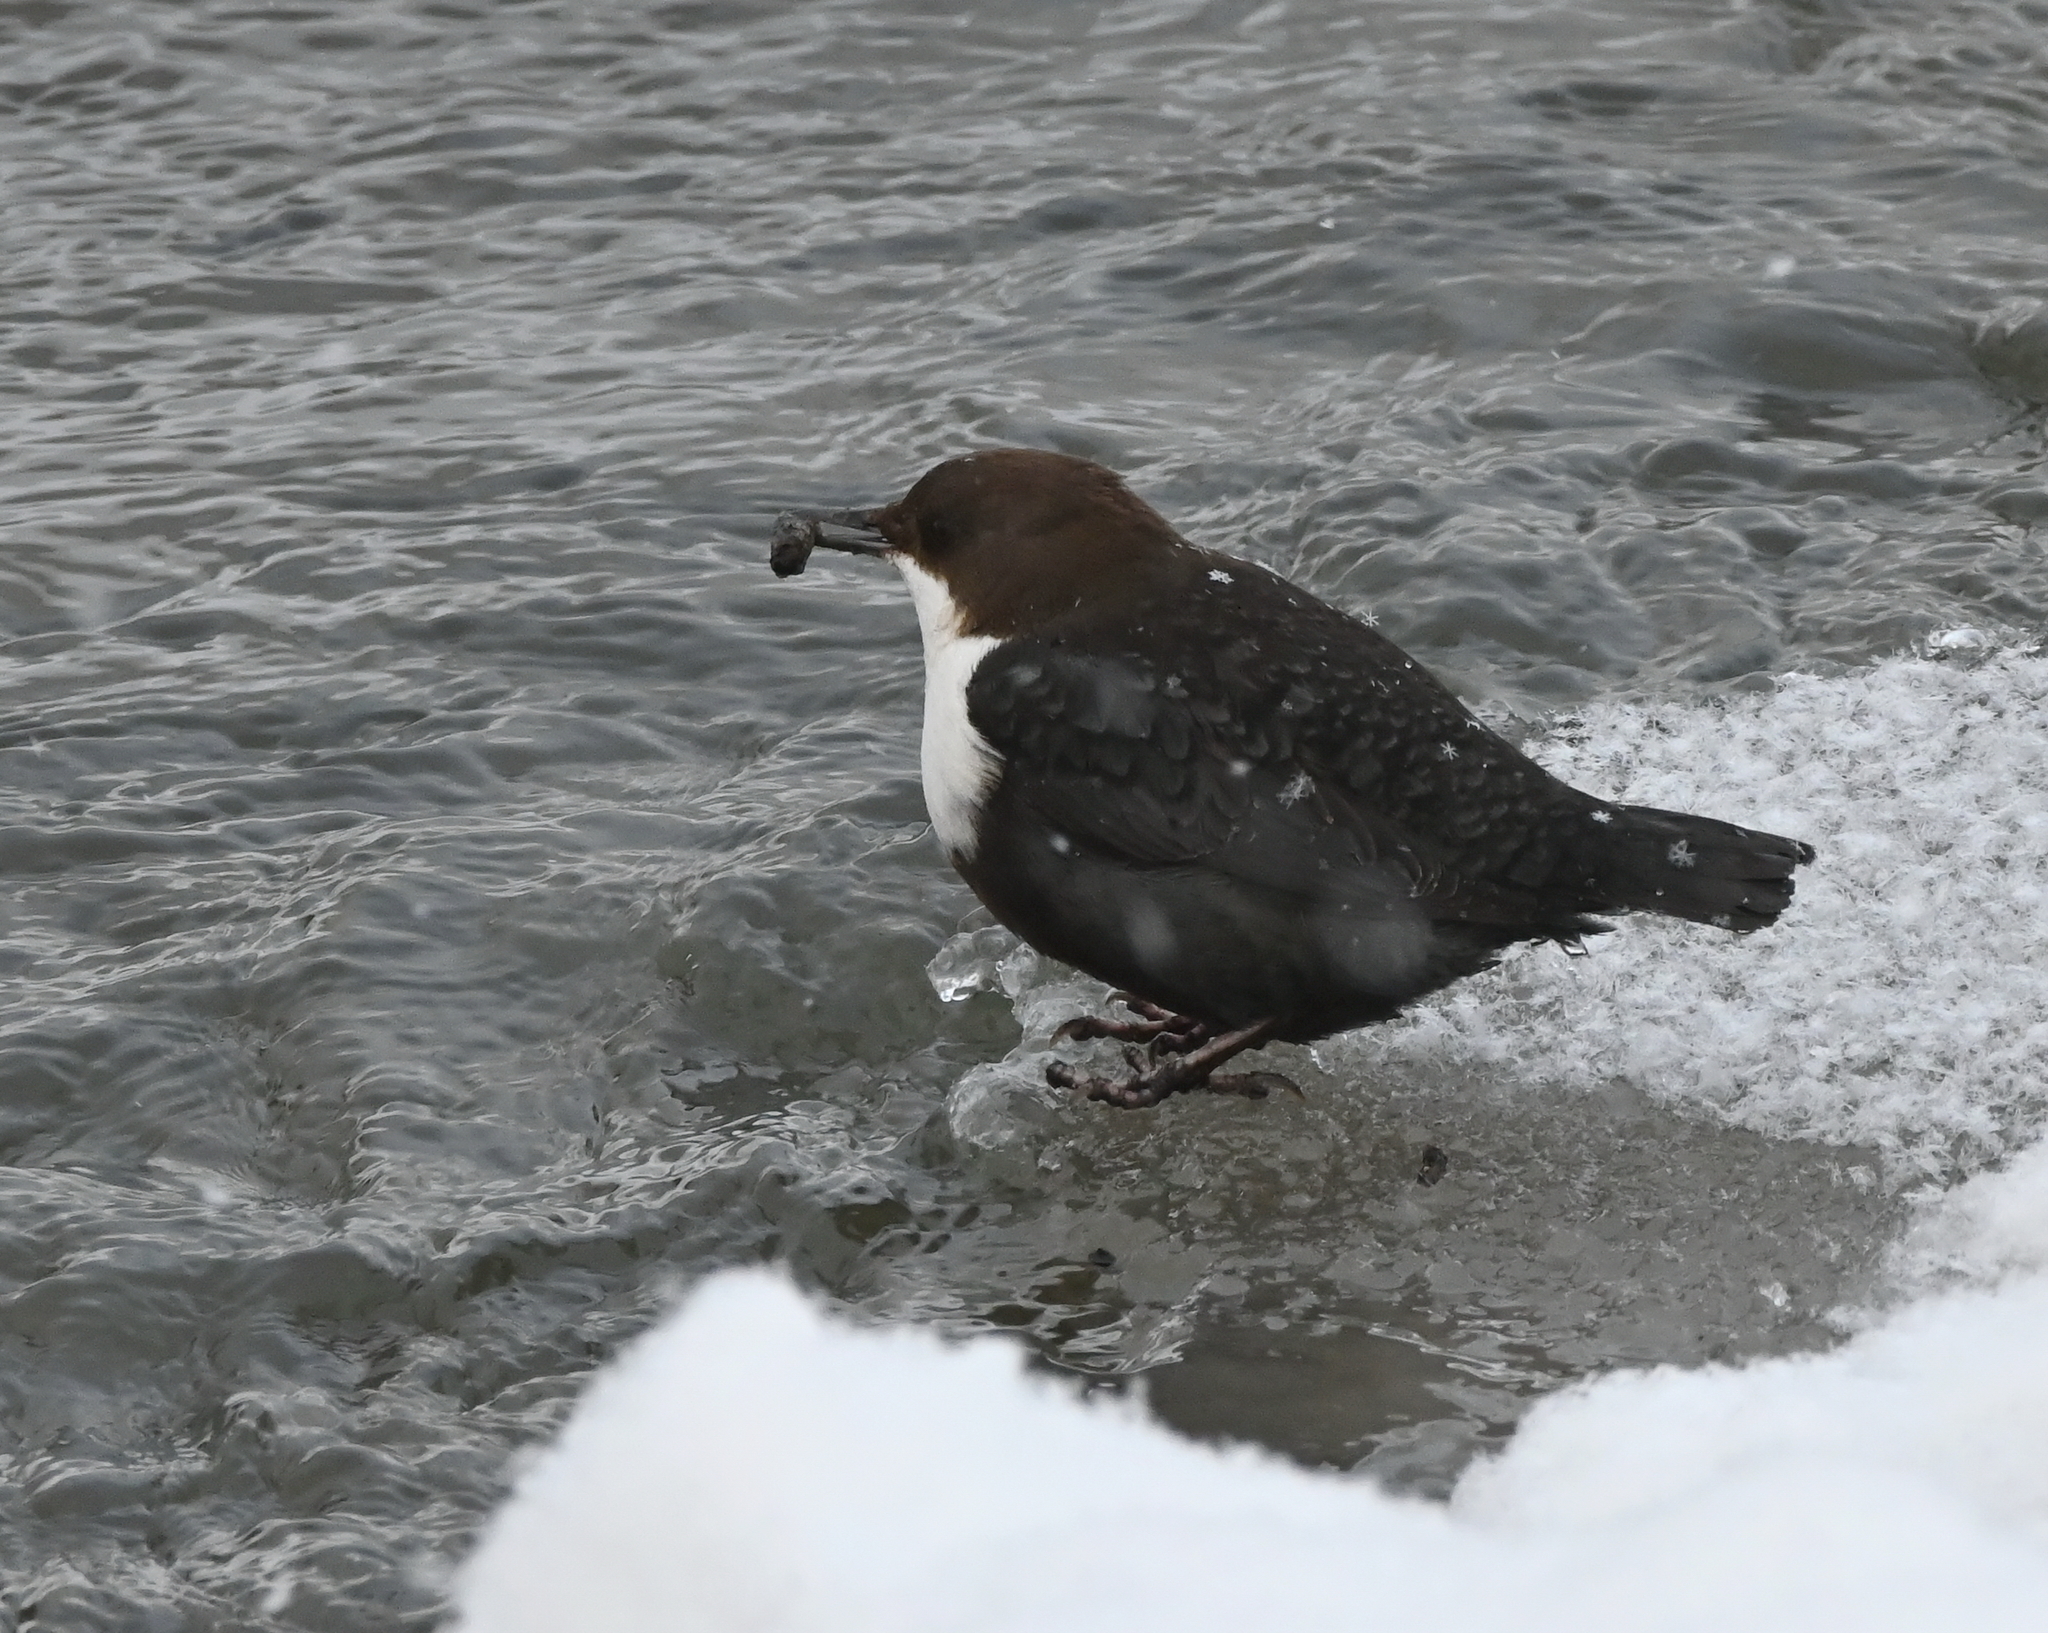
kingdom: Animalia
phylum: Chordata
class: Aves
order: Passeriformes
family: Cinclidae
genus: Cinclus
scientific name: Cinclus cinclus
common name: White-throated dipper
